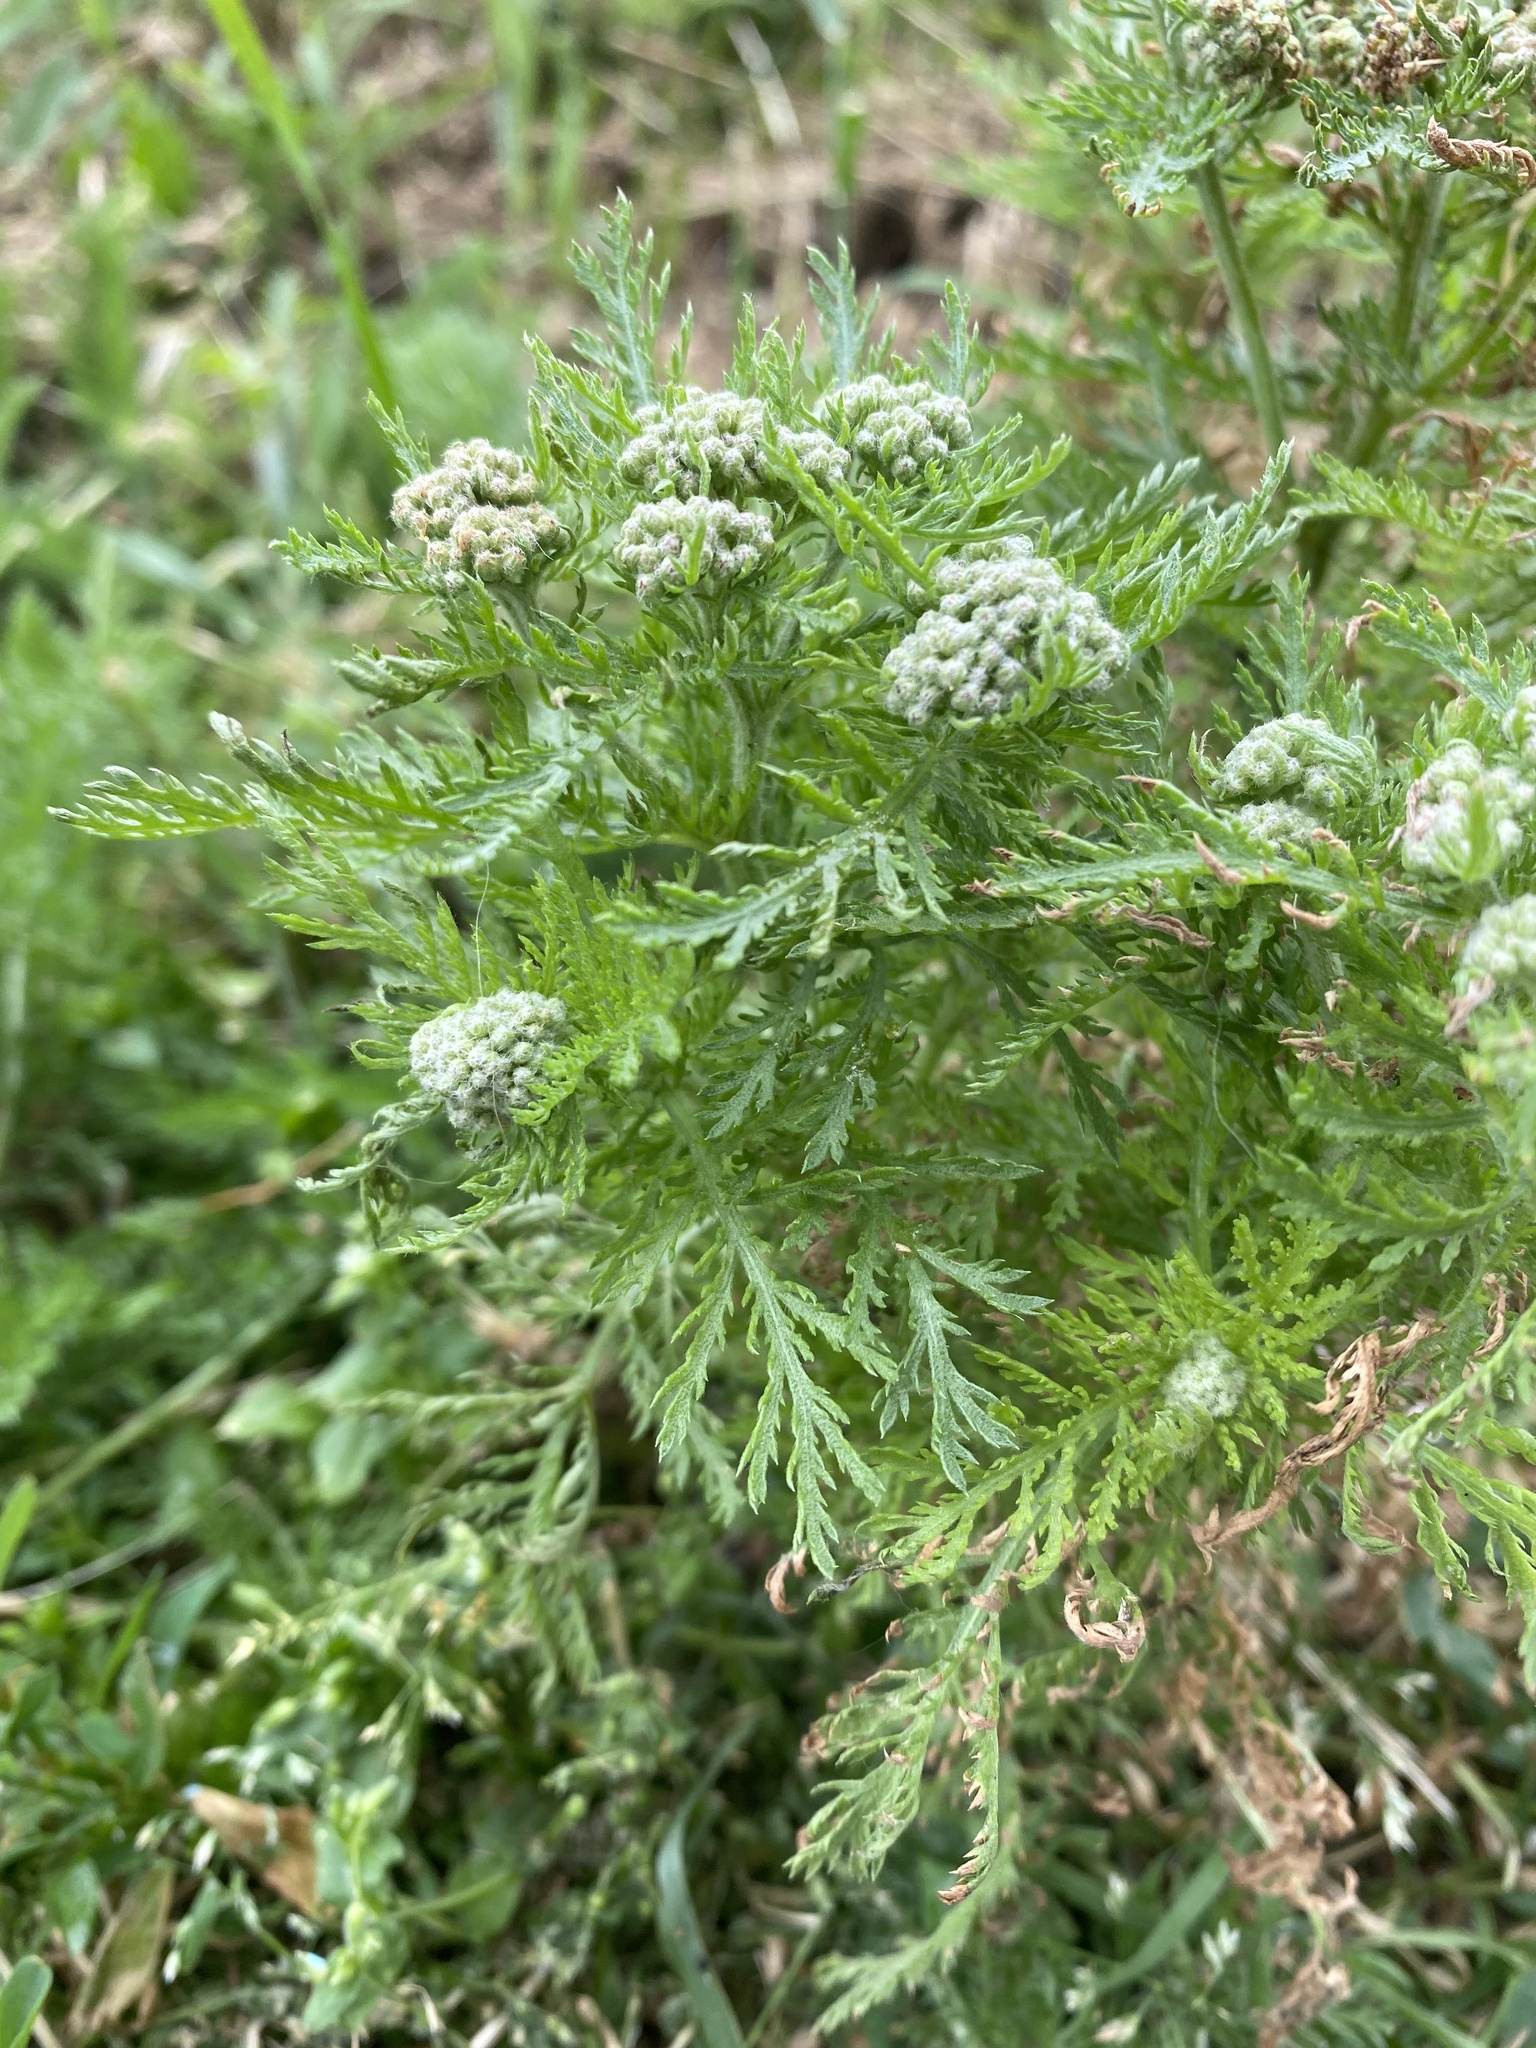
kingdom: Plantae
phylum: Tracheophyta
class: Magnoliopsida
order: Asterales
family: Asteraceae
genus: Achillea
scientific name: Achillea nobilis
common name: Noble yarrow
